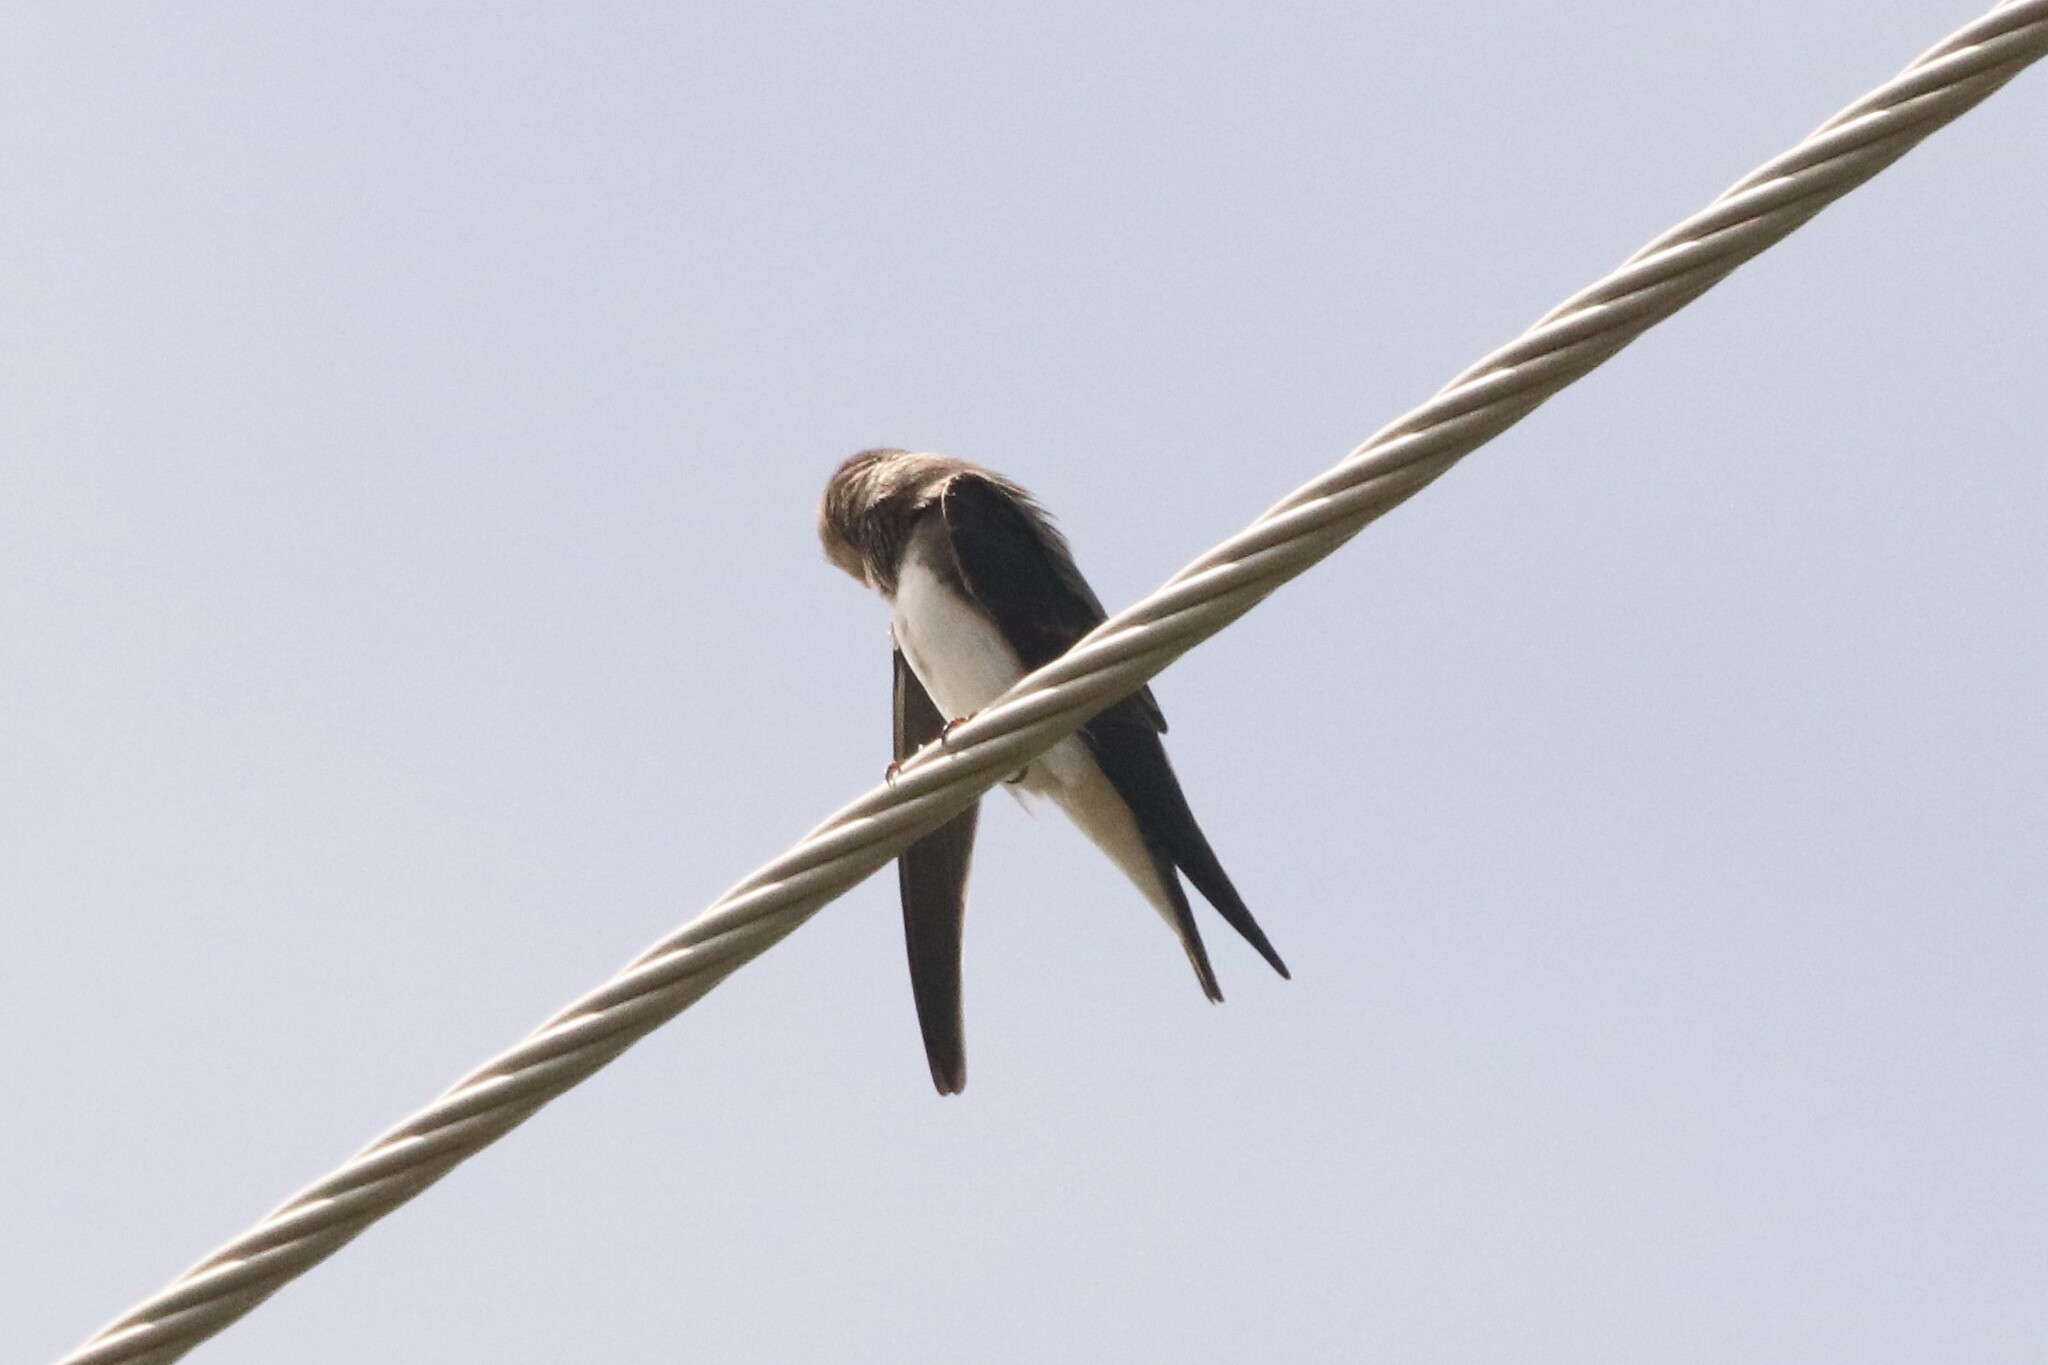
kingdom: Animalia
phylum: Chordata
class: Aves
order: Passeriformes
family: Hirundinidae
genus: Riparia
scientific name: Riparia riparia
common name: Sand martin
